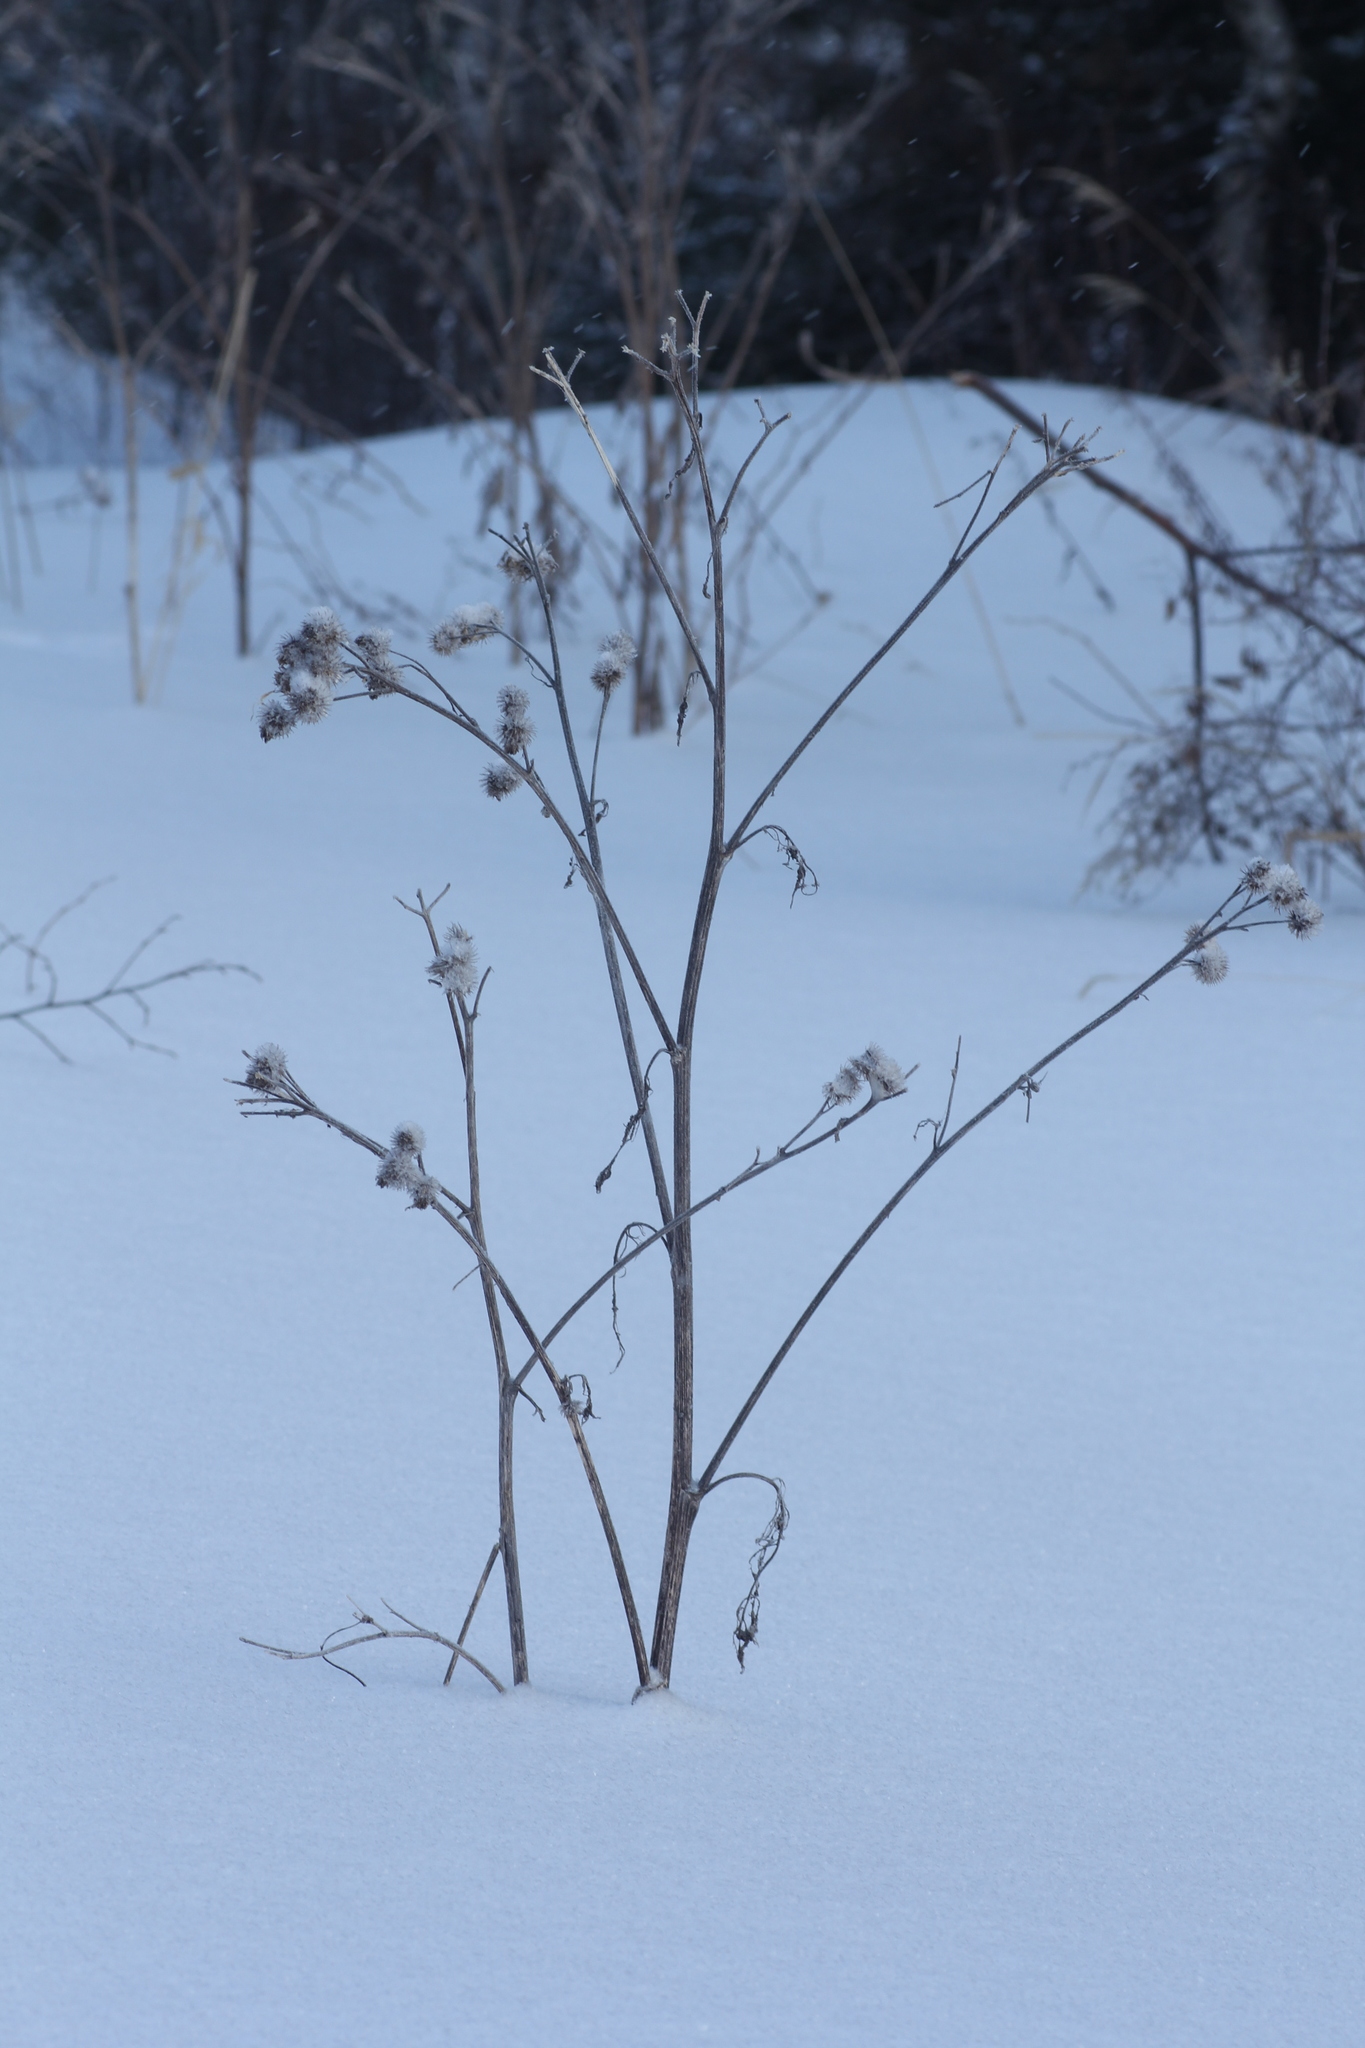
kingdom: Plantae
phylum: Tracheophyta
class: Magnoliopsida
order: Asterales
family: Asteraceae
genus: Arctium
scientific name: Arctium tomentosum
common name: Woolly burdock
